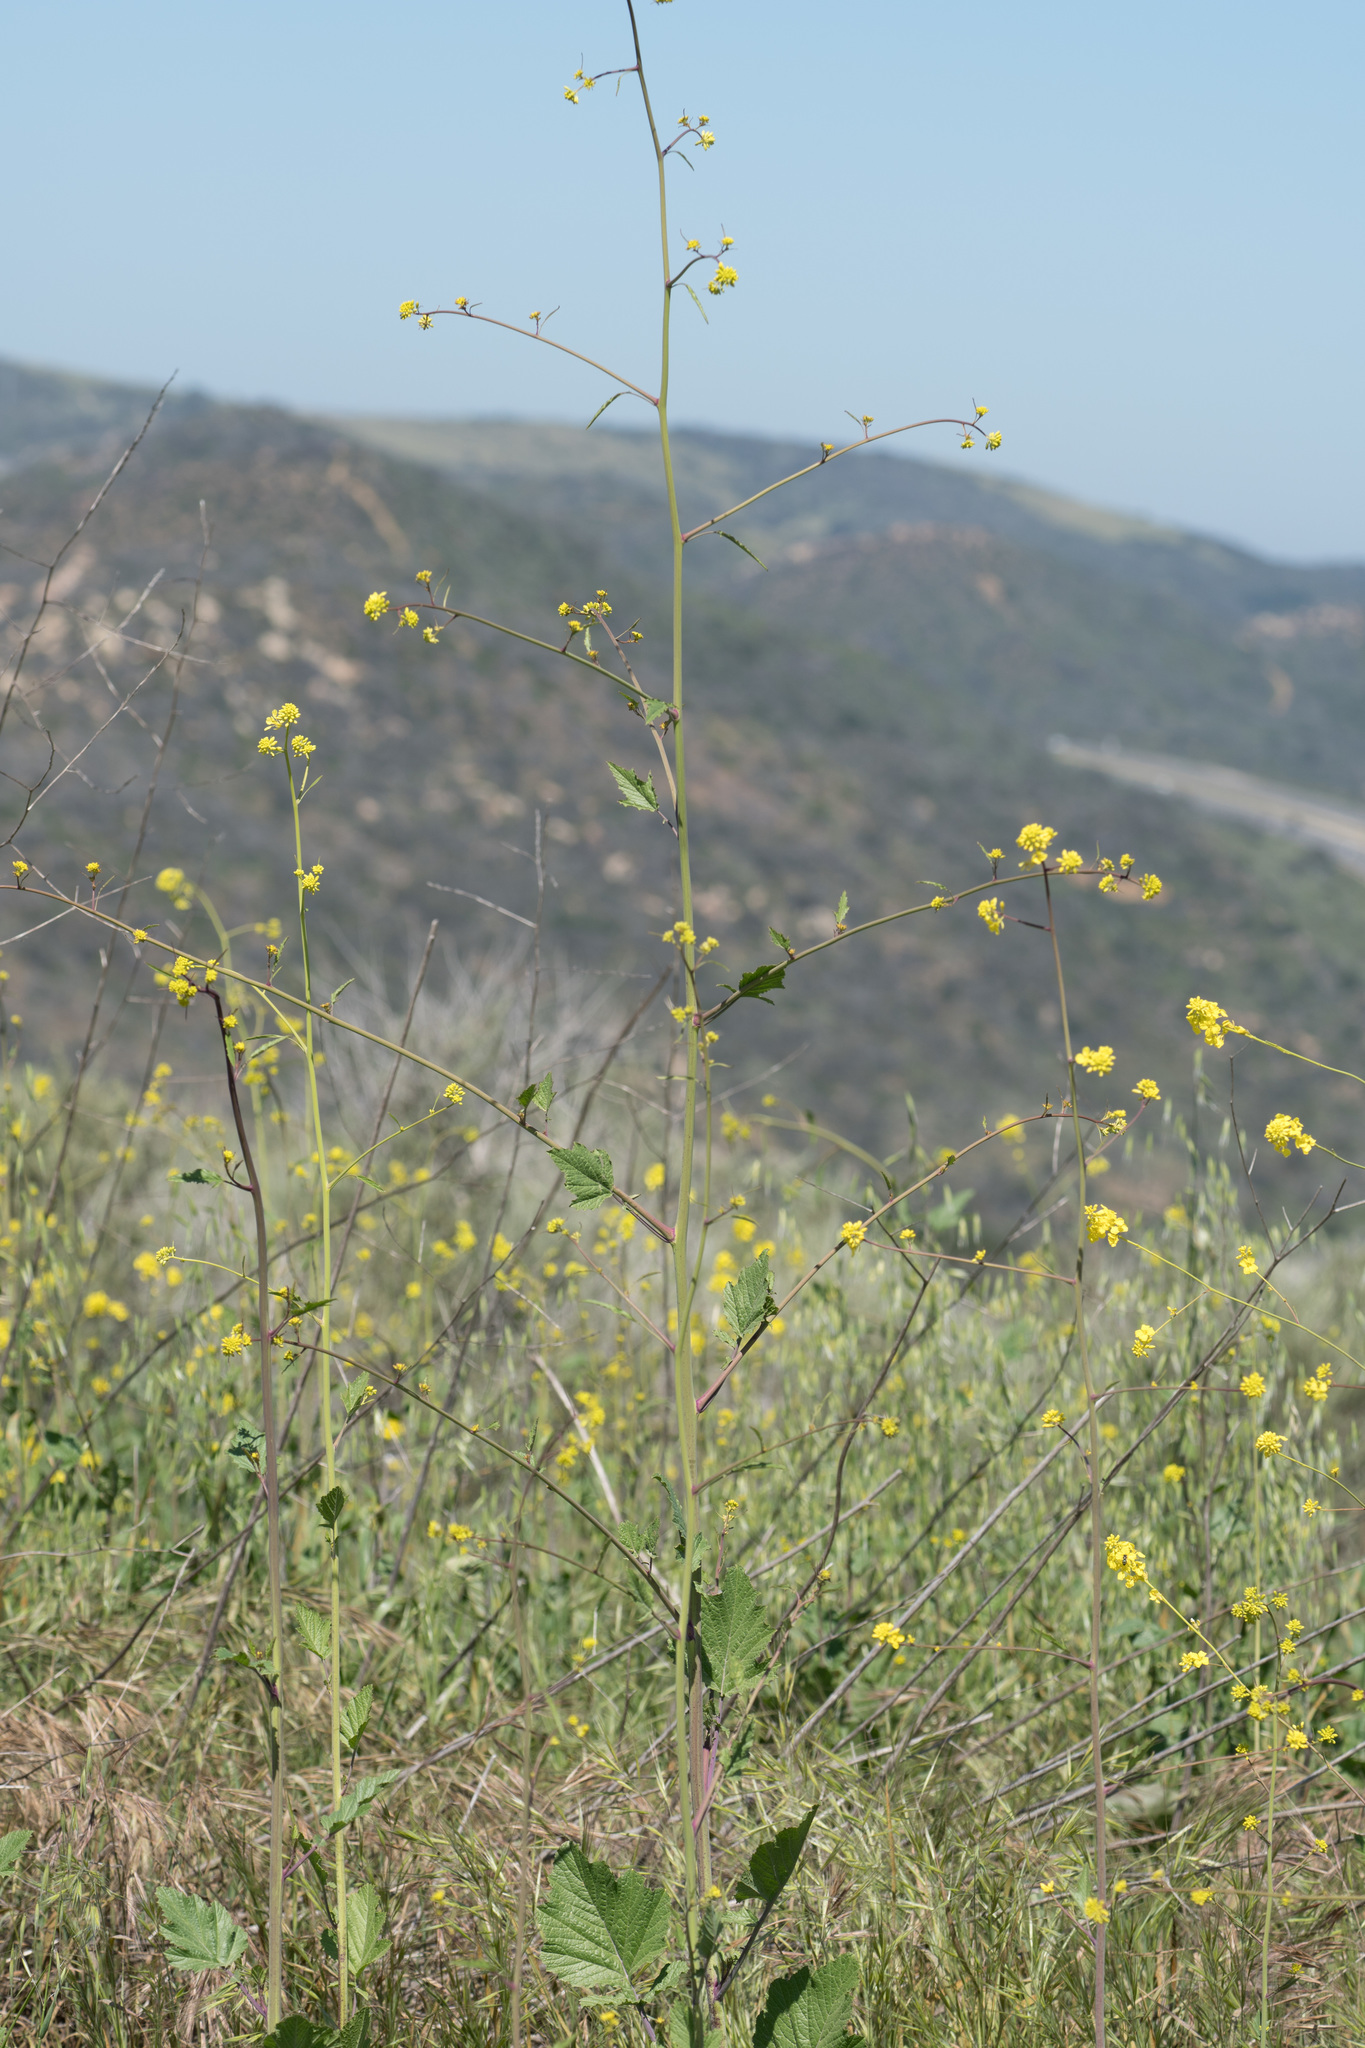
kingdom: Plantae
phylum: Tracheophyta
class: Magnoliopsida
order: Brassicales
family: Brassicaceae
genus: Brassica
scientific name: Brassica nigra
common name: Black mustard
